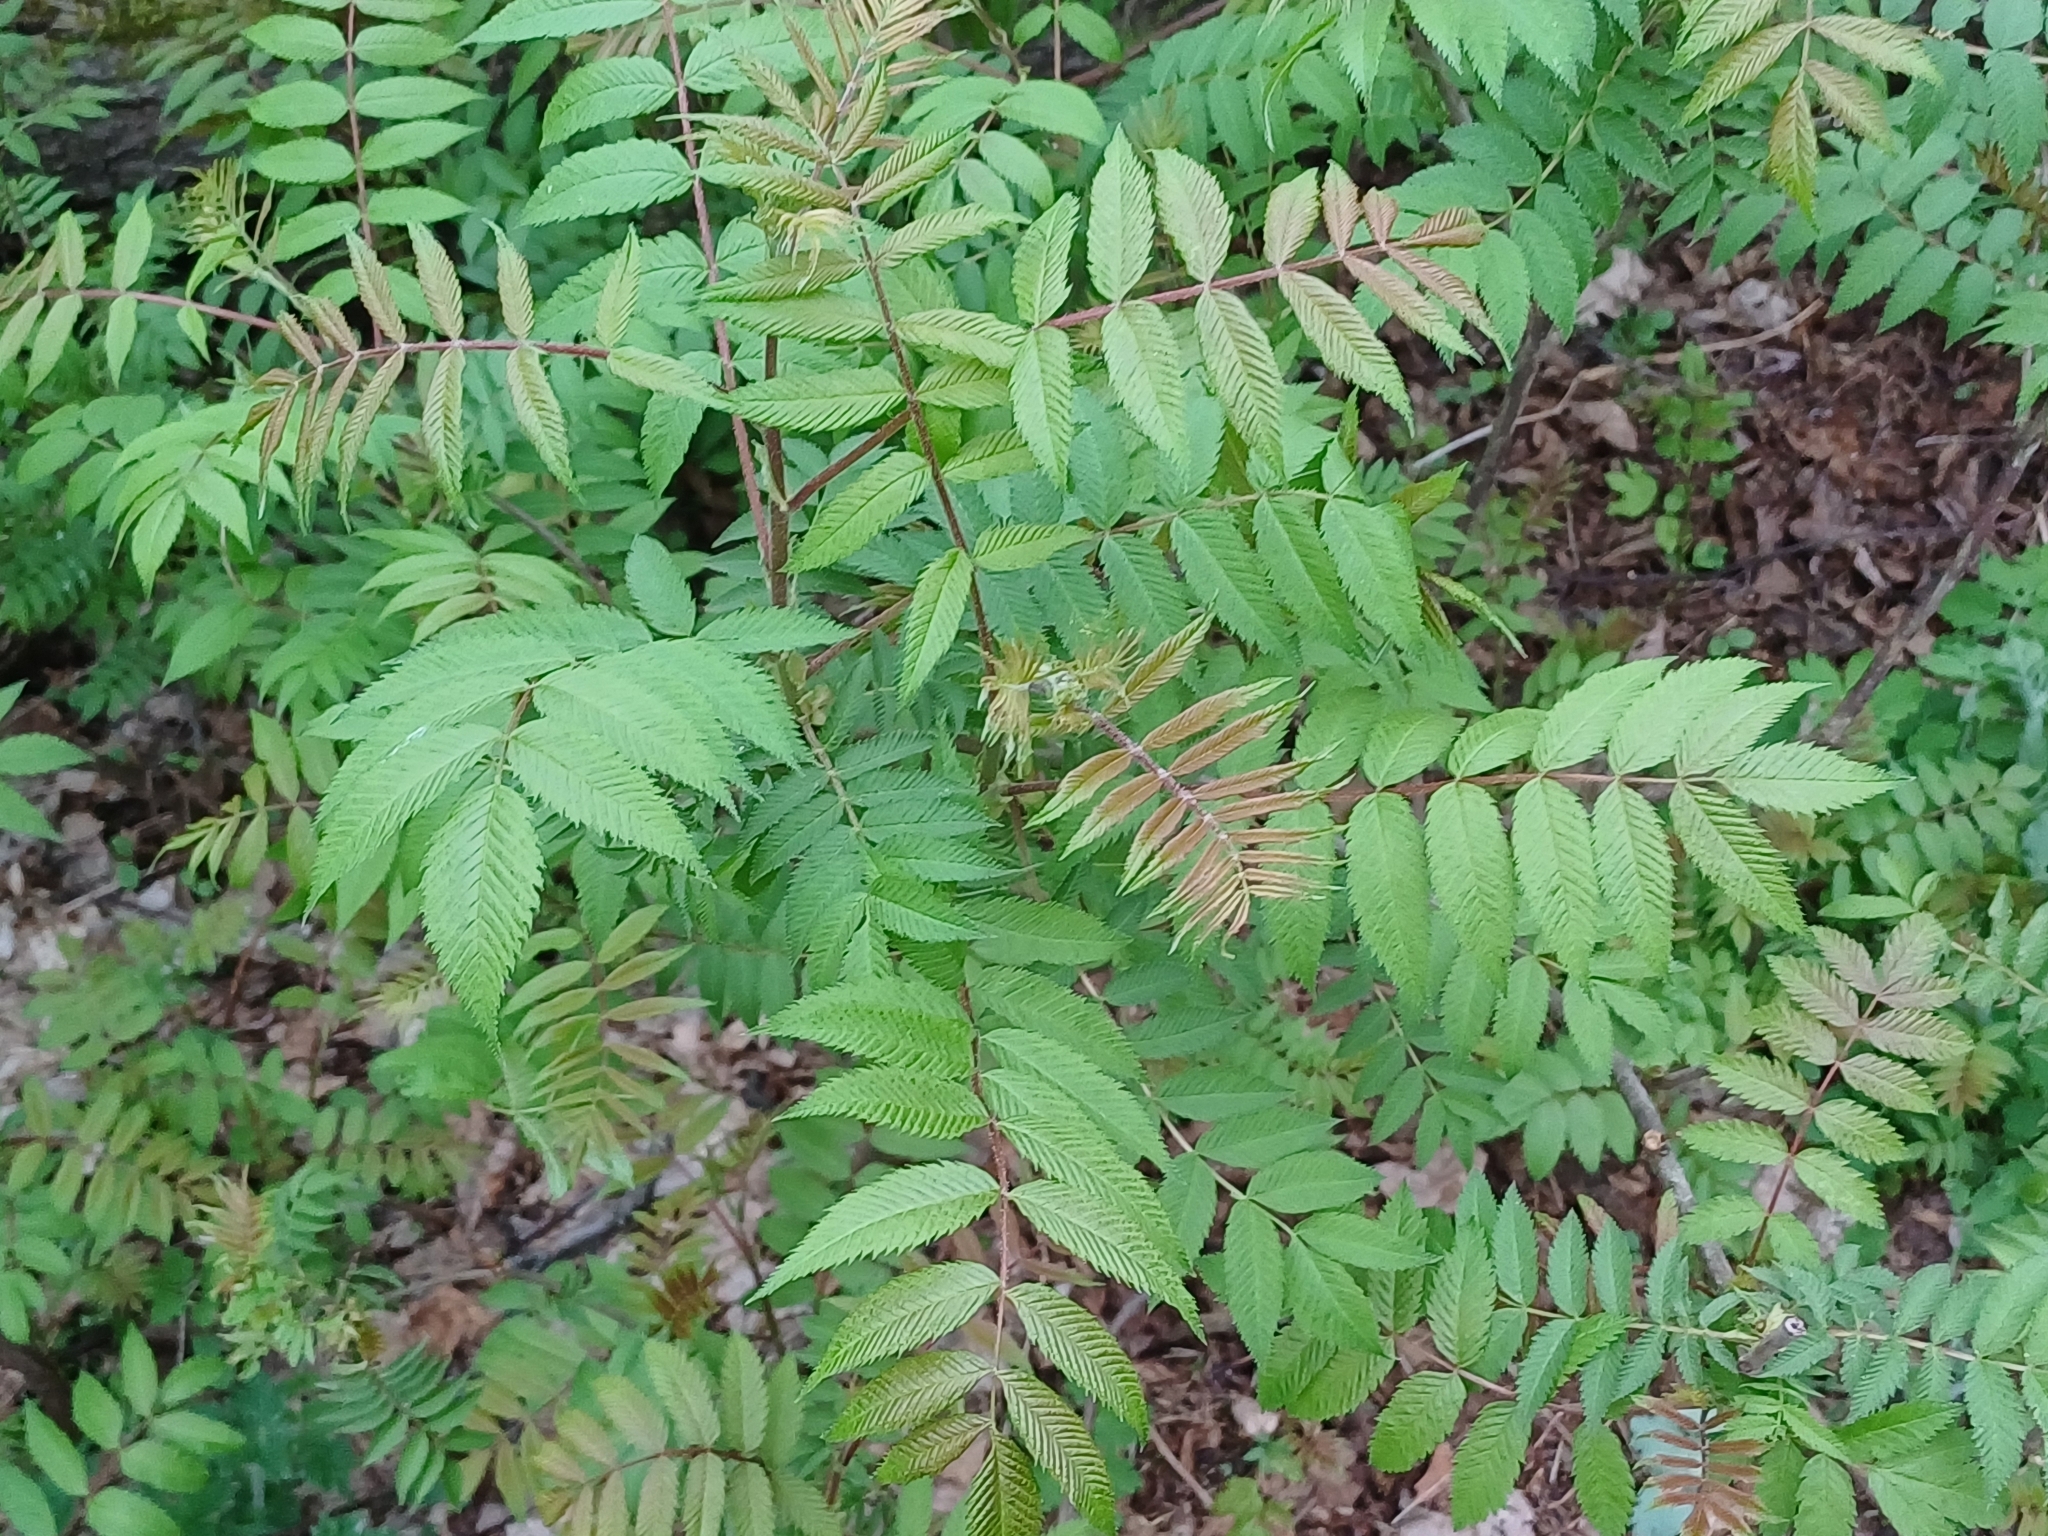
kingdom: Plantae
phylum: Tracheophyta
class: Magnoliopsida
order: Rosales
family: Rosaceae
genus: Sorbaria
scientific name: Sorbaria sorbifolia
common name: False spiraea
